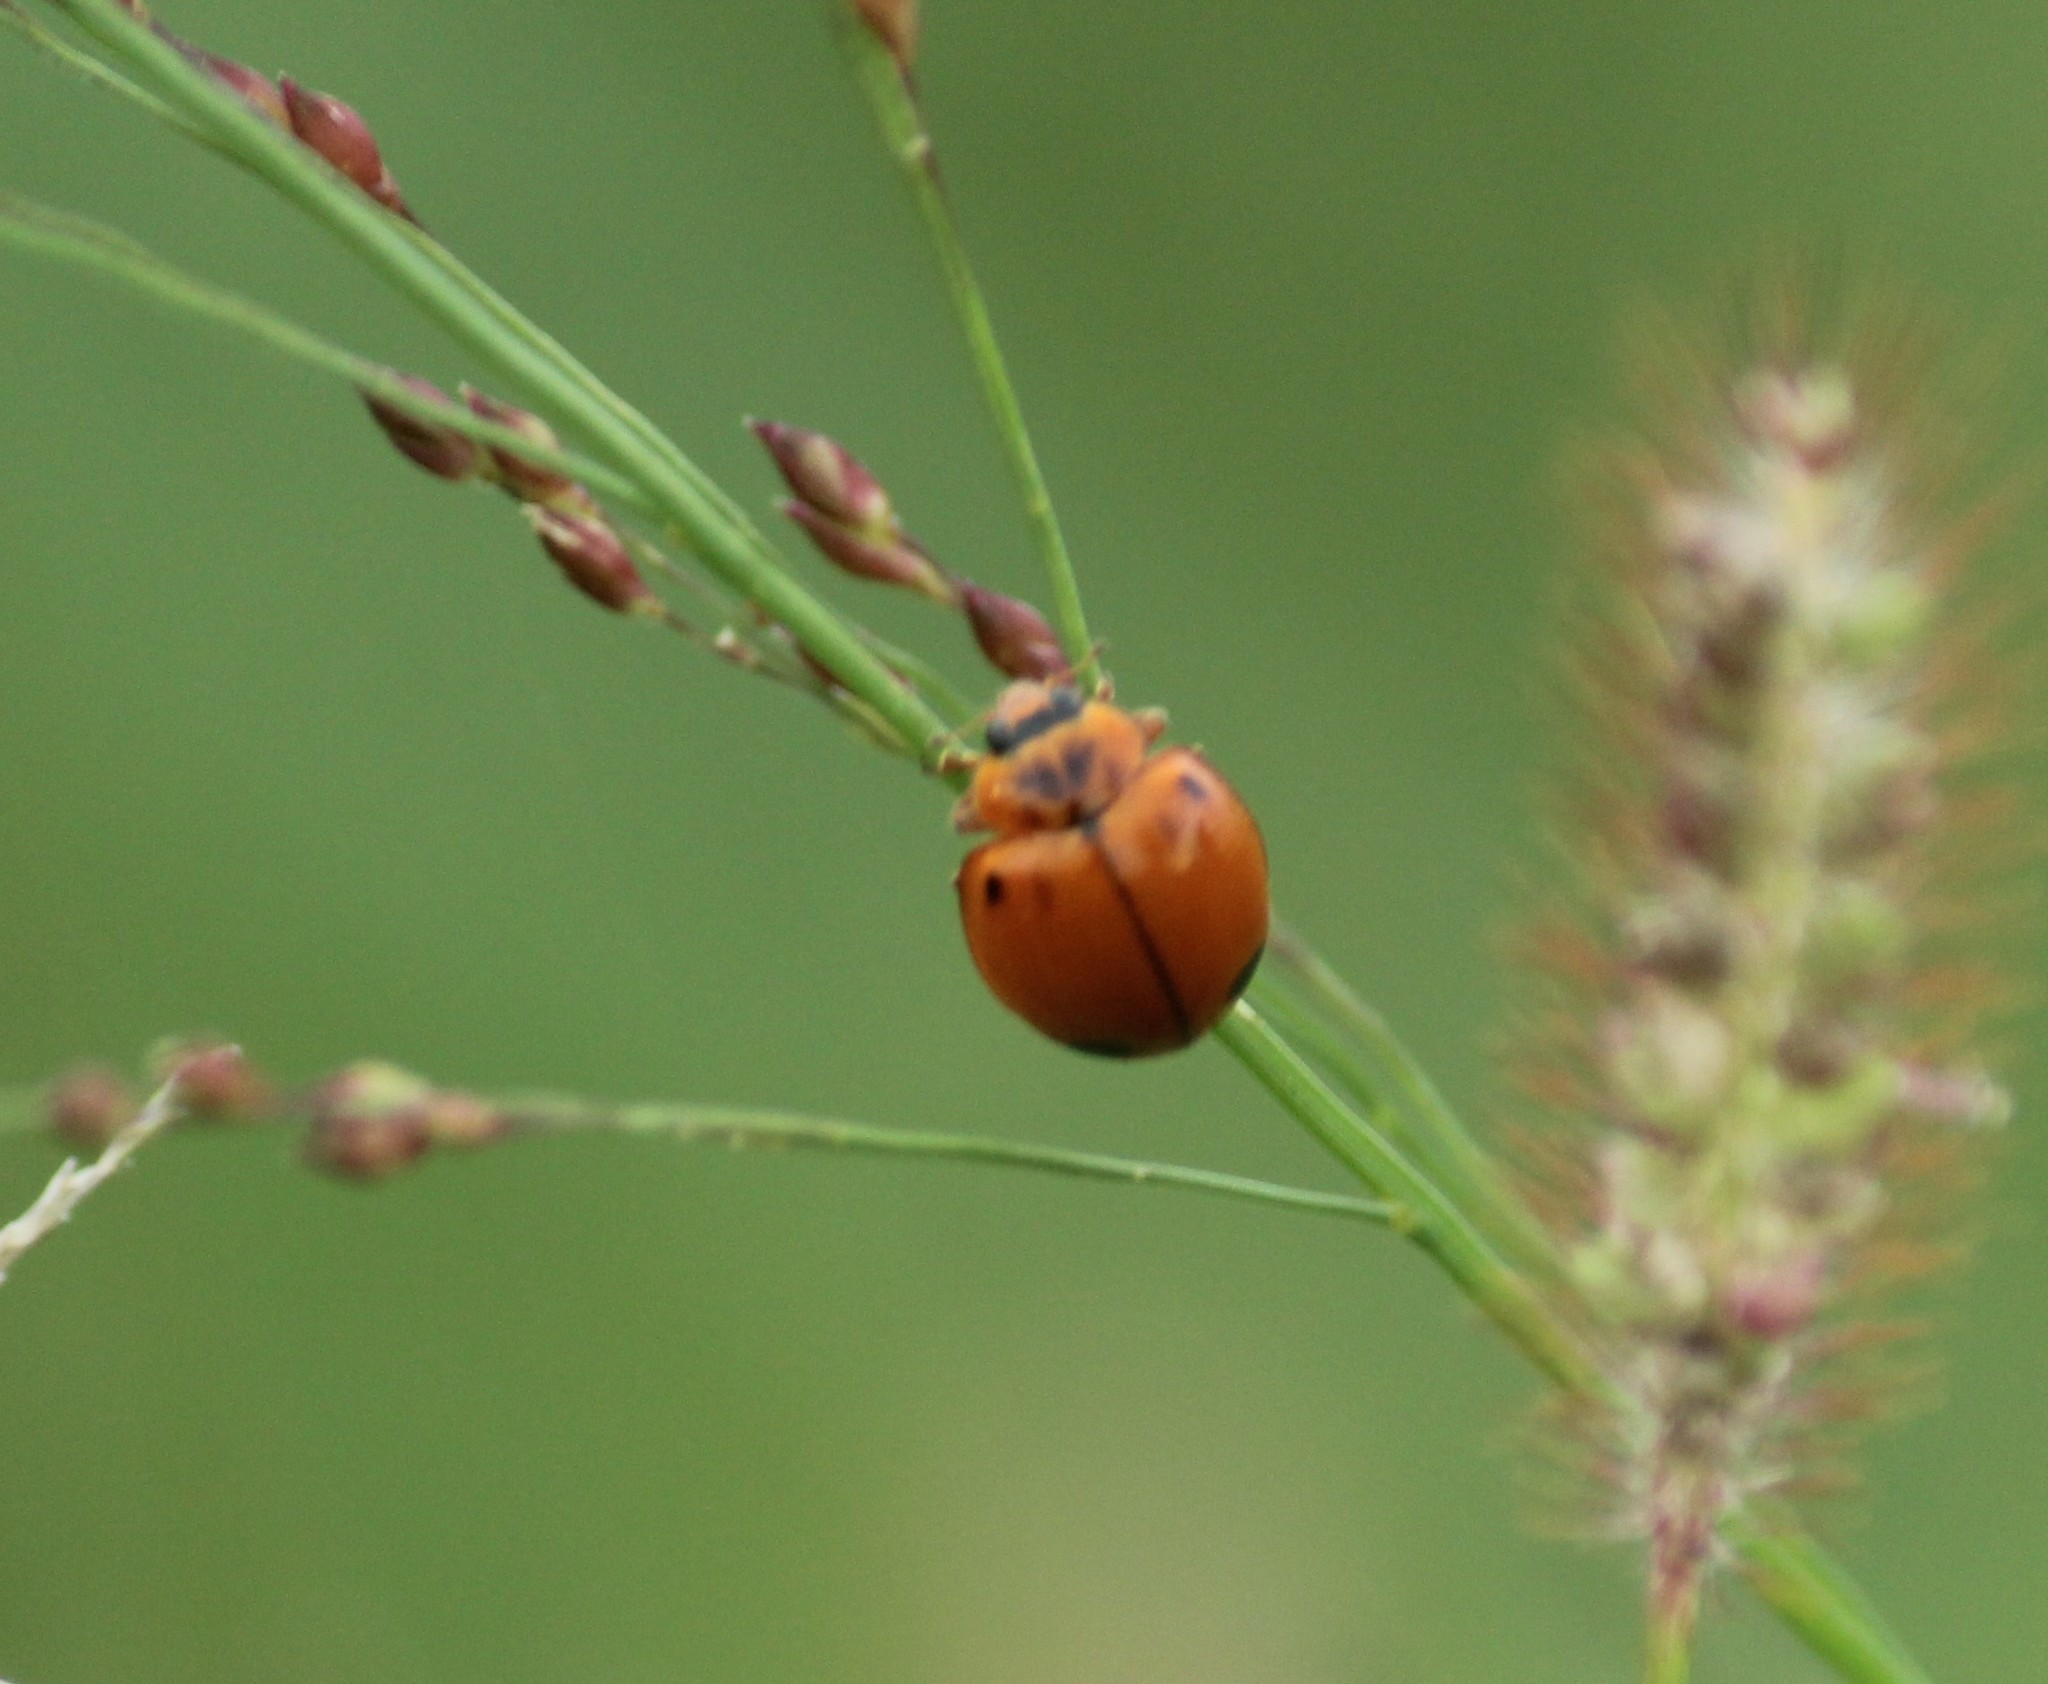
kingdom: Animalia
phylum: Arthropoda
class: Insecta
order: Coleoptera
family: Coccinellidae
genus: Harmonia
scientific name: Harmonia octomaculata
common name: Lady beetle
